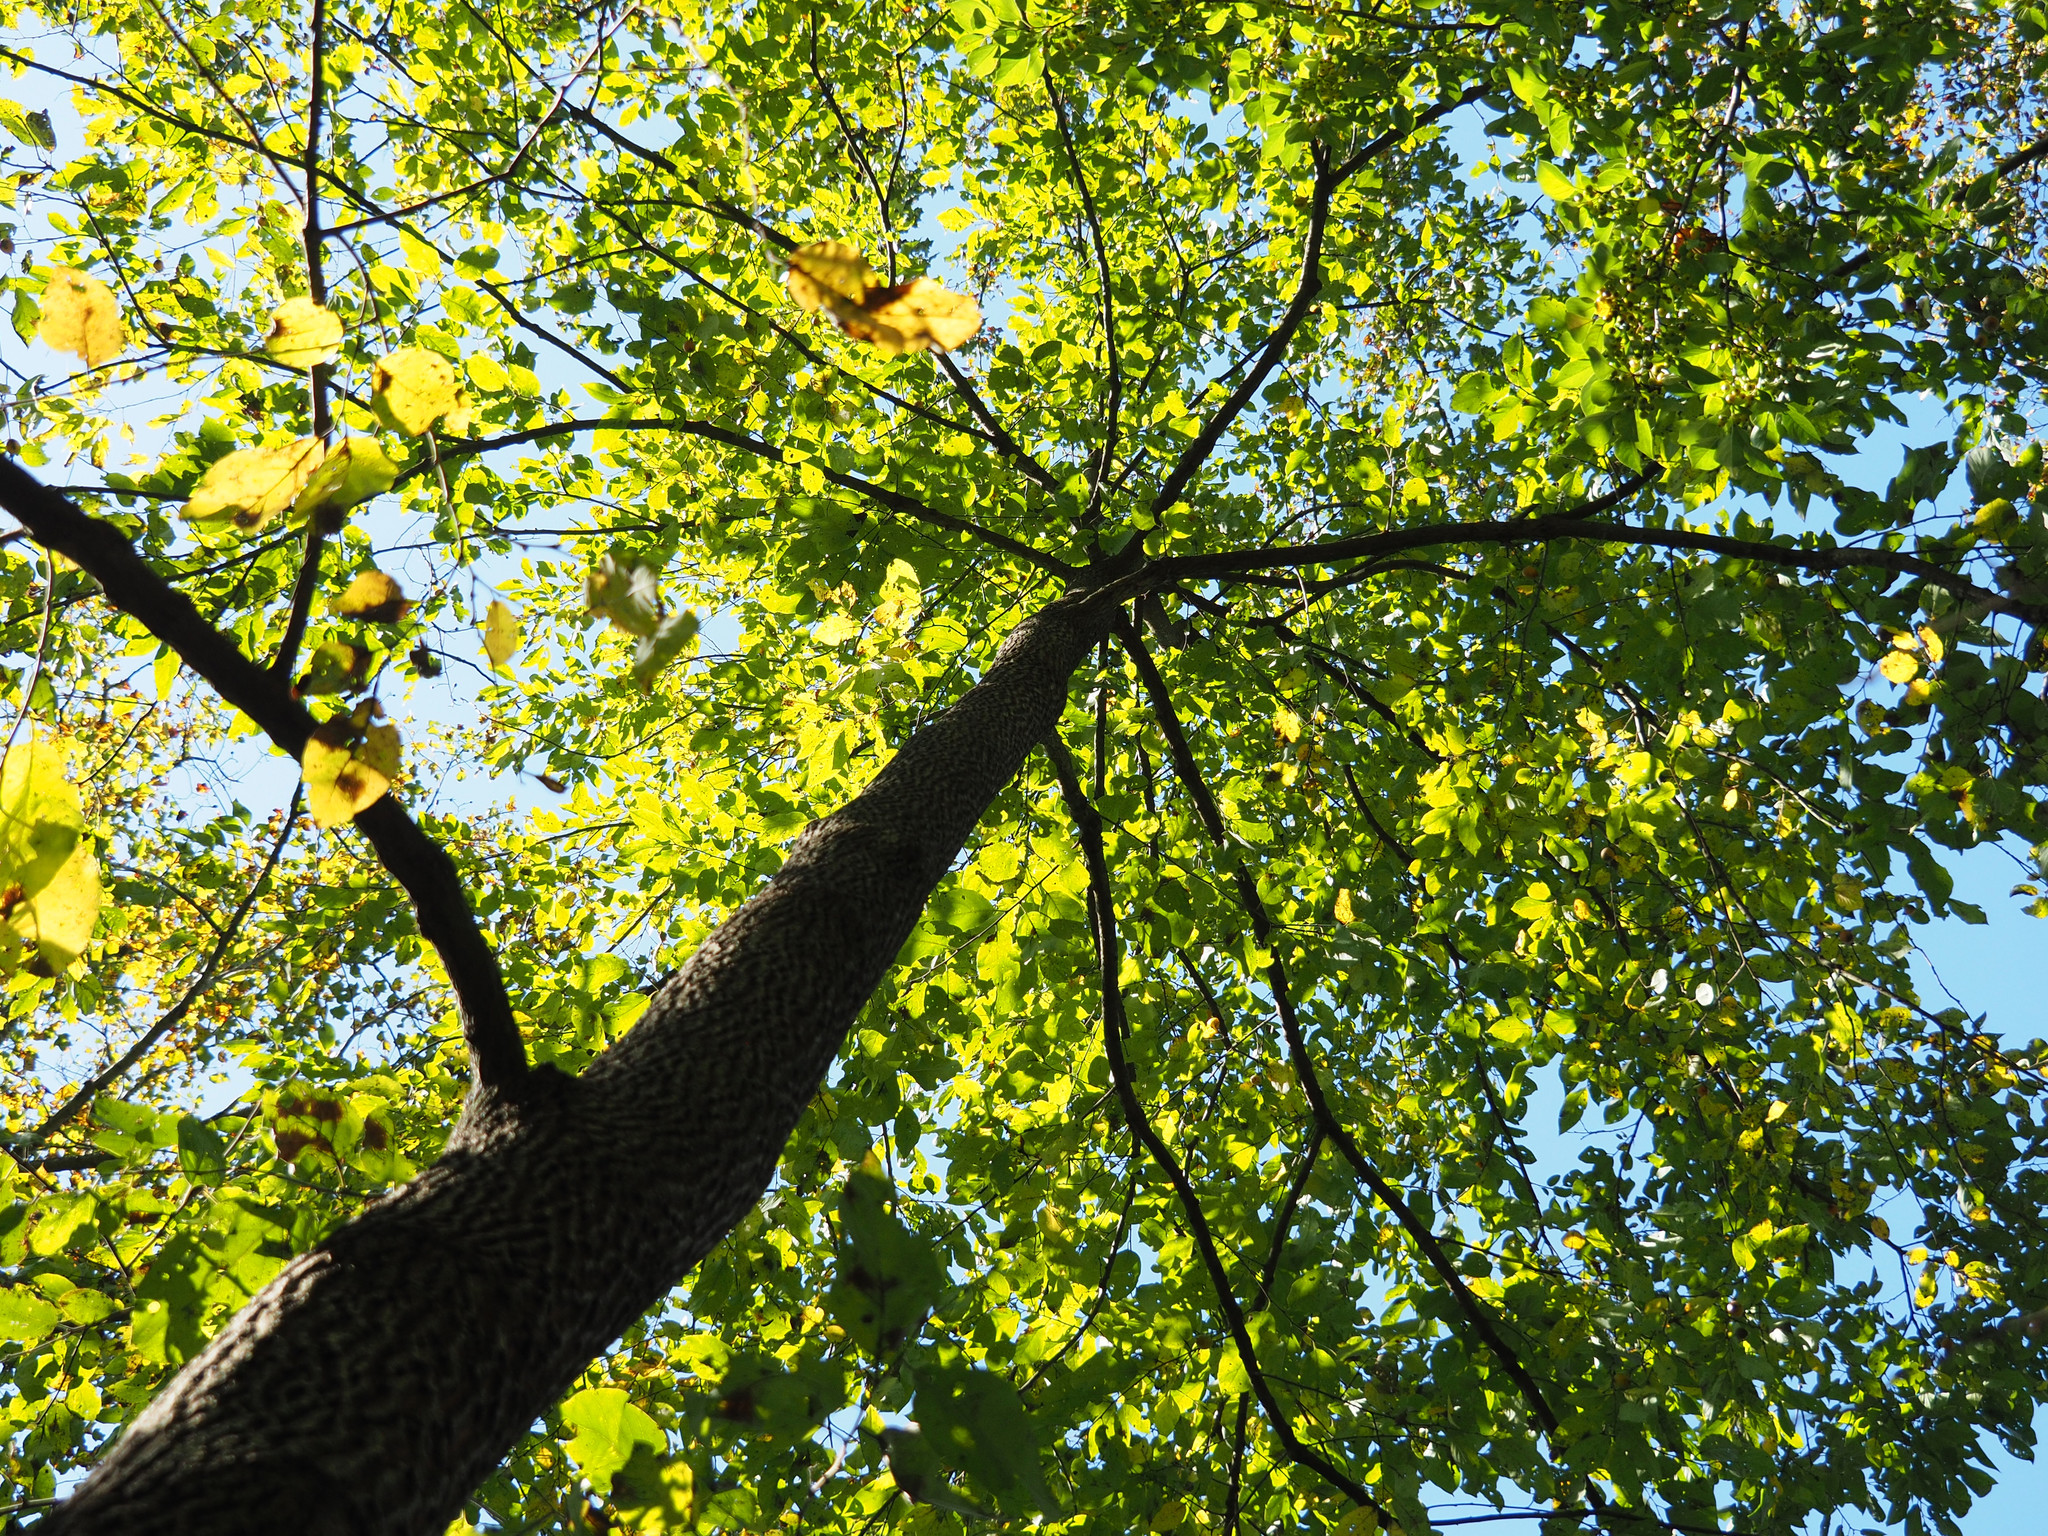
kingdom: Plantae
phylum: Tracheophyta
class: Magnoliopsida
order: Ericales
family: Ebenaceae
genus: Diospyros
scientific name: Diospyros virginiana
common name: Persimmon
